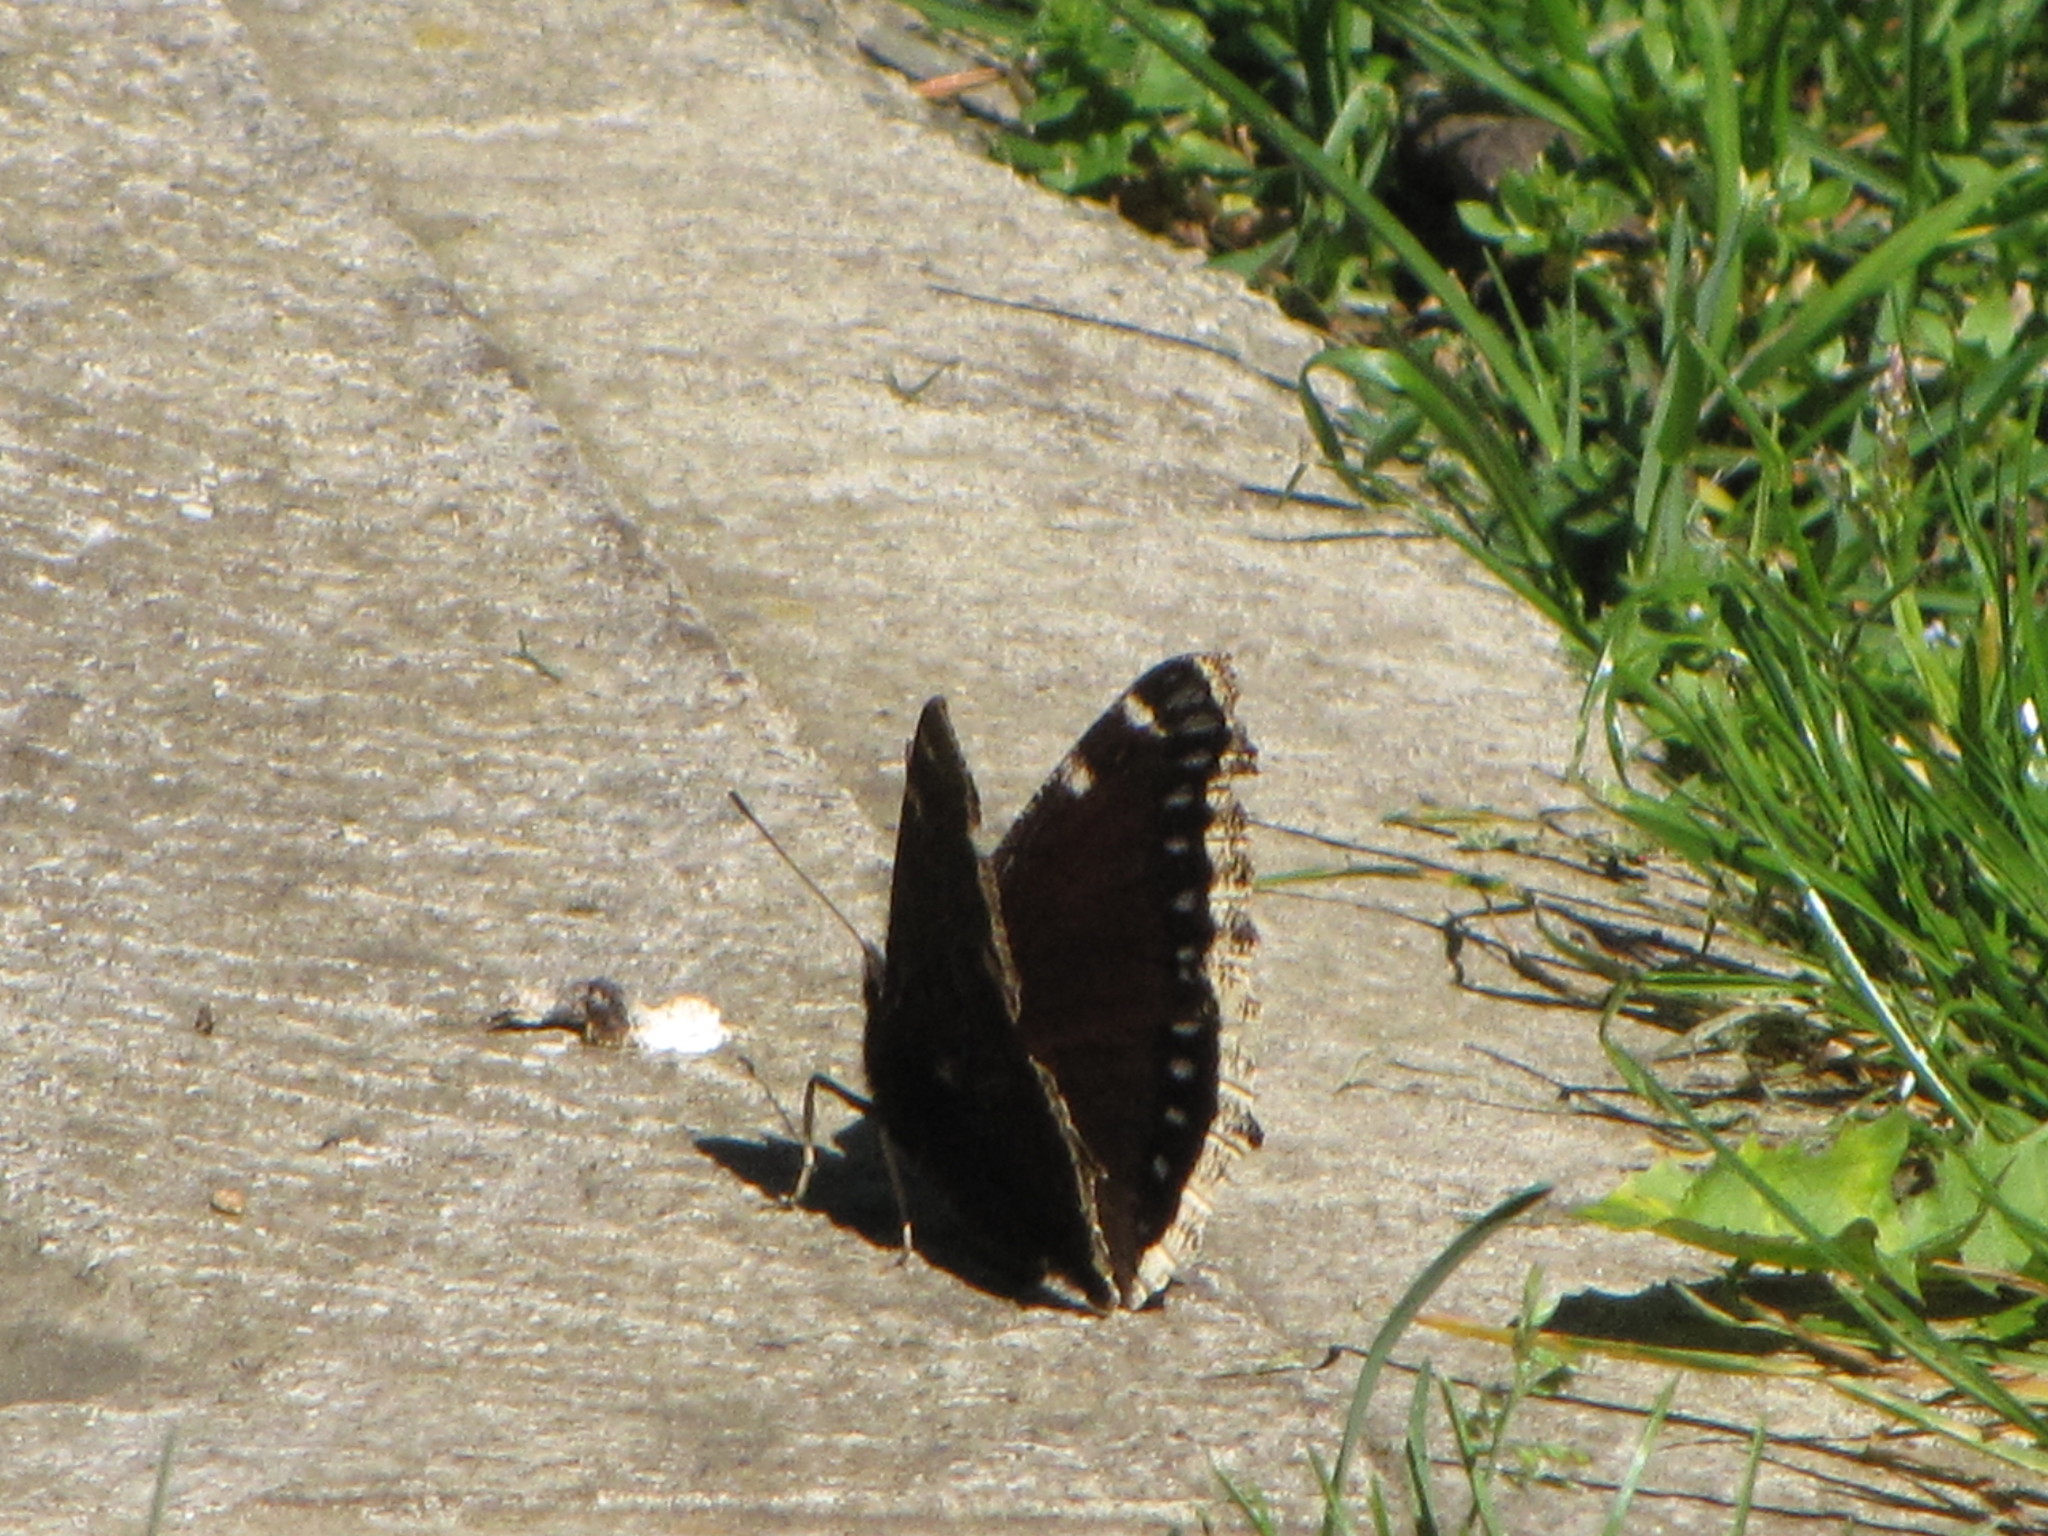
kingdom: Animalia
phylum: Arthropoda
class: Insecta
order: Lepidoptera
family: Nymphalidae
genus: Nymphalis
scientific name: Nymphalis antiopa
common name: Camberwell beauty
